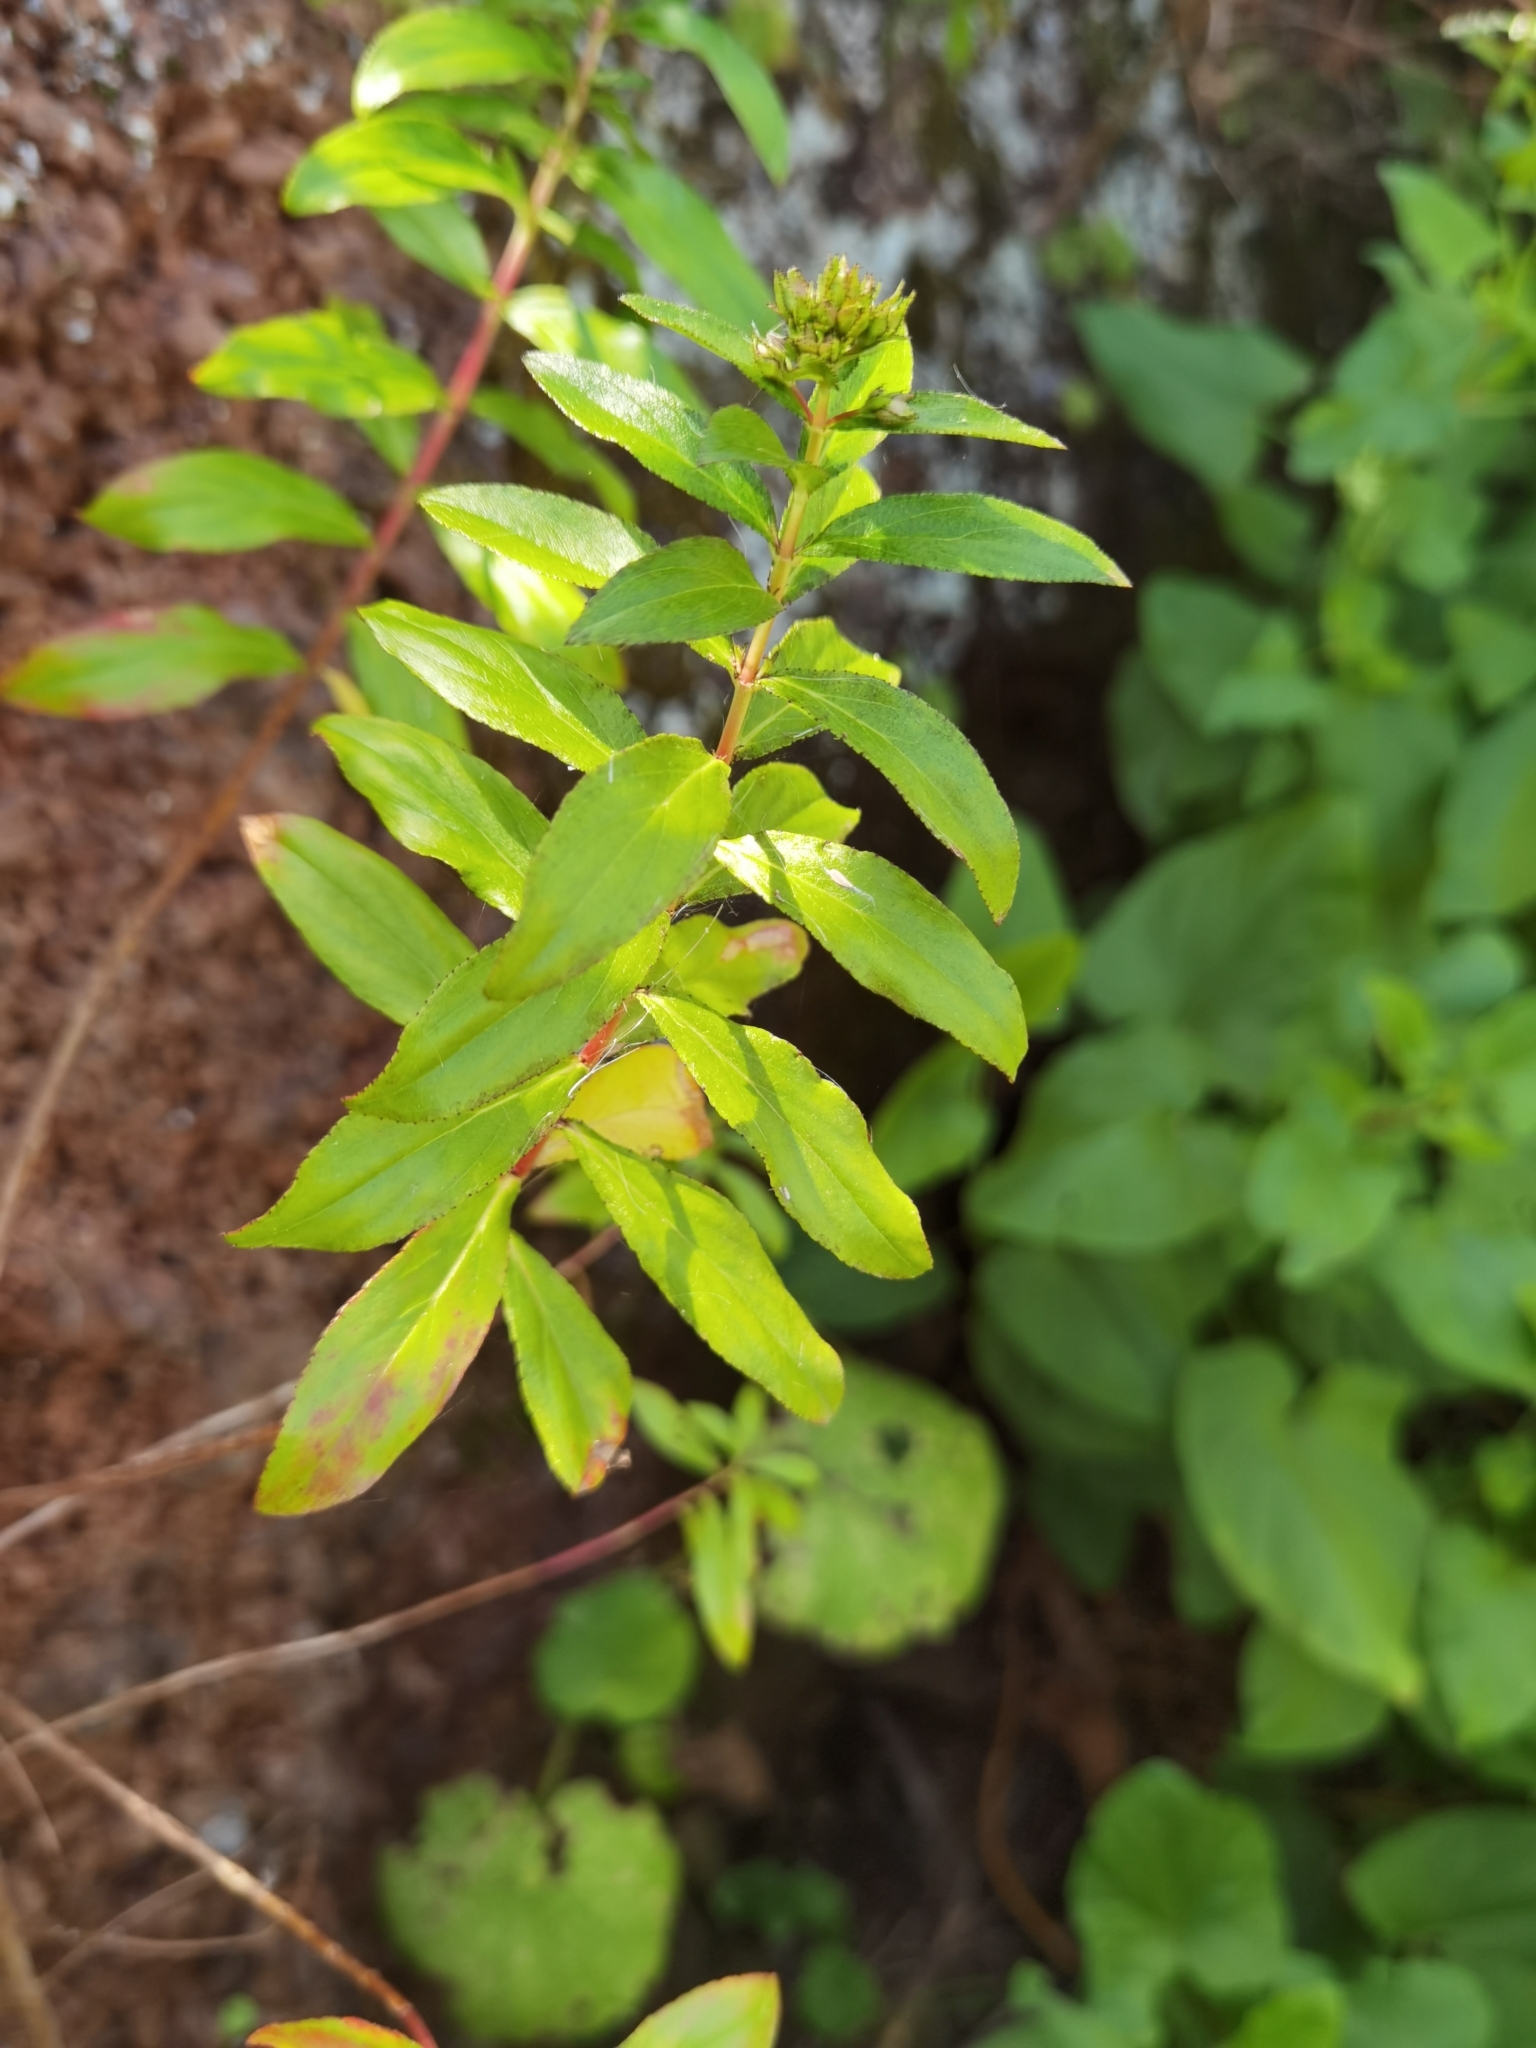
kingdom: Plantae
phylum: Tracheophyta
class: Magnoliopsida
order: Malpighiales
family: Hypericaceae
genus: Hypericum
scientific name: Hypericum glandulosum
